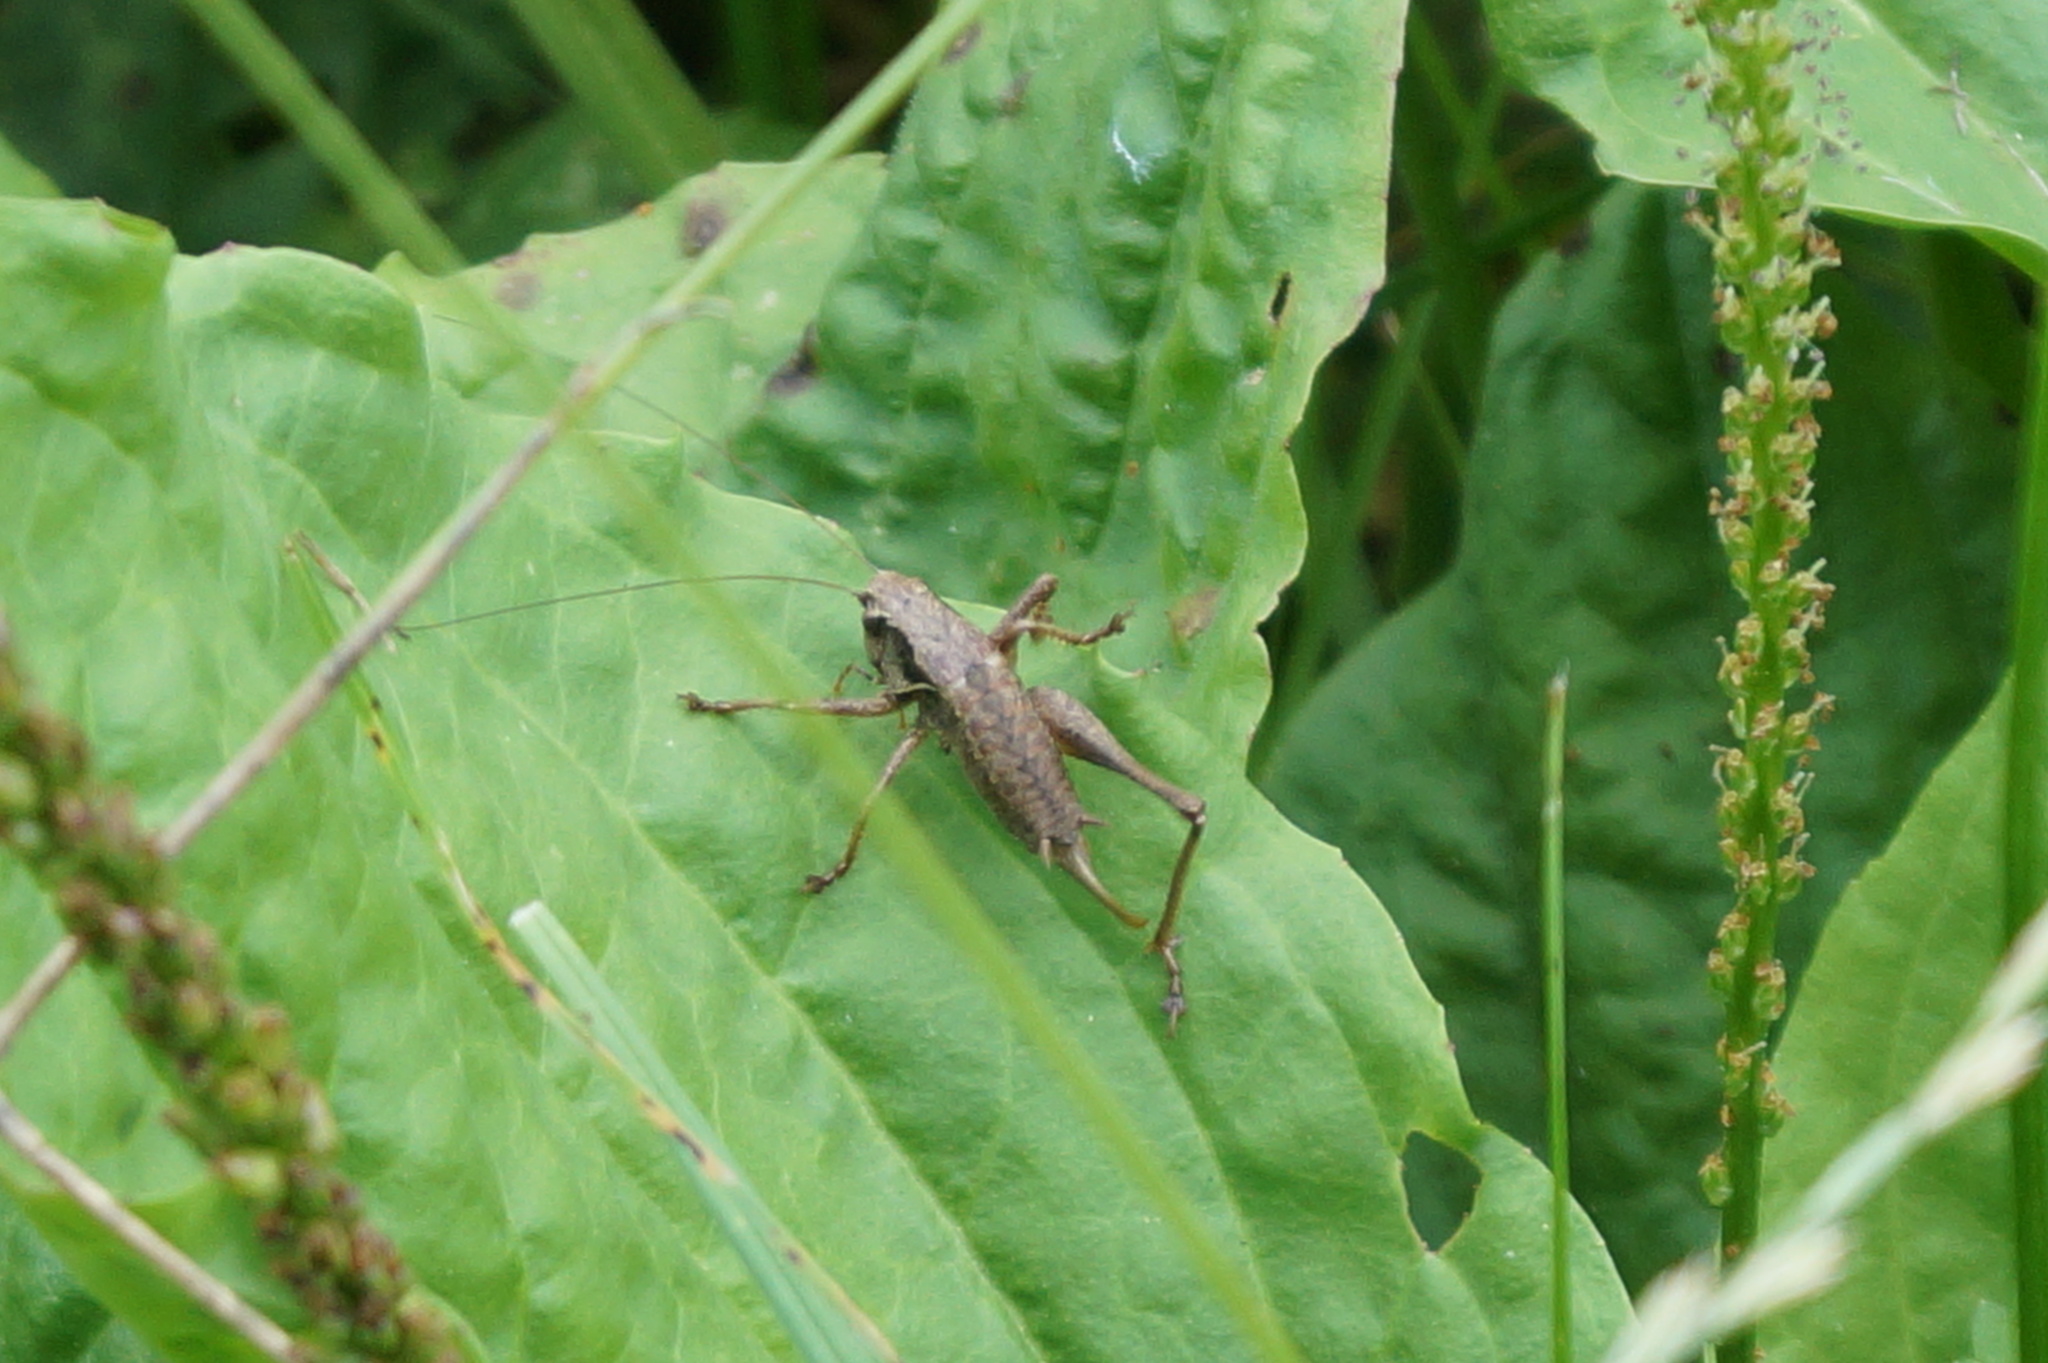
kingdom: Animalia
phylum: Arthropoda
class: Insecta
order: Orthoptera
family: Tettigoniidae
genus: Pholidoptera
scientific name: Pholidoptera griseoaptera
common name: Dark bush-cricket
